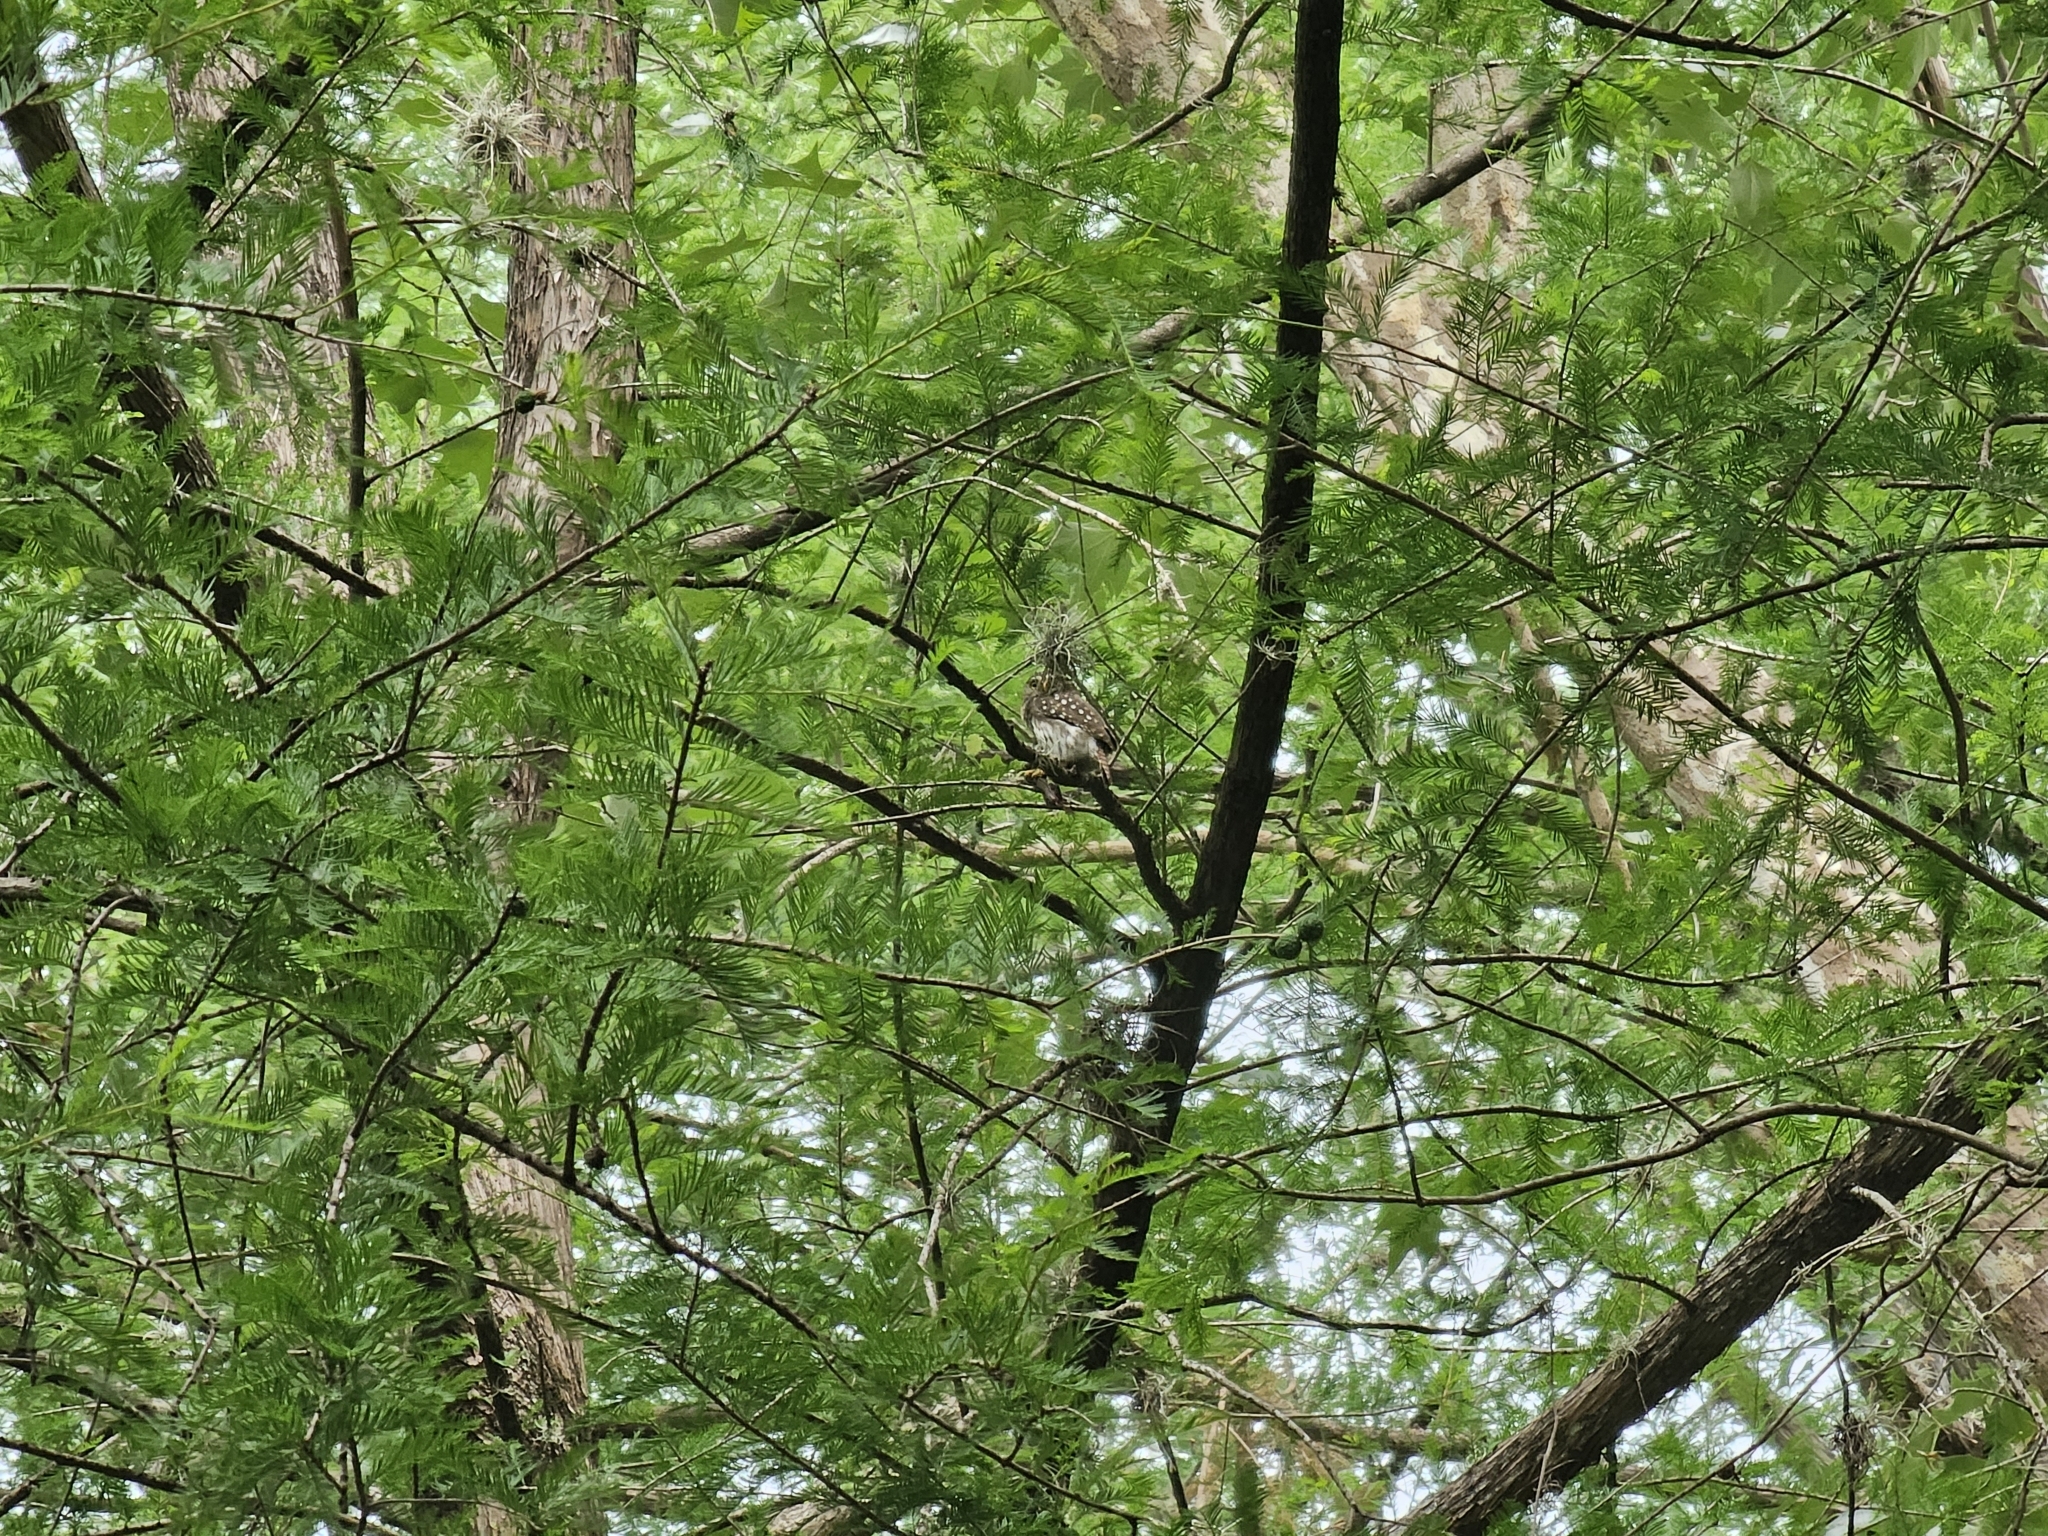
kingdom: Animalia
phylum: Chordata
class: Aves
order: Strigiformes
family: Strigidae
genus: Glaucidium
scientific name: Glaucidium brasilianum
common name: Ferruginous pygmy-owl
